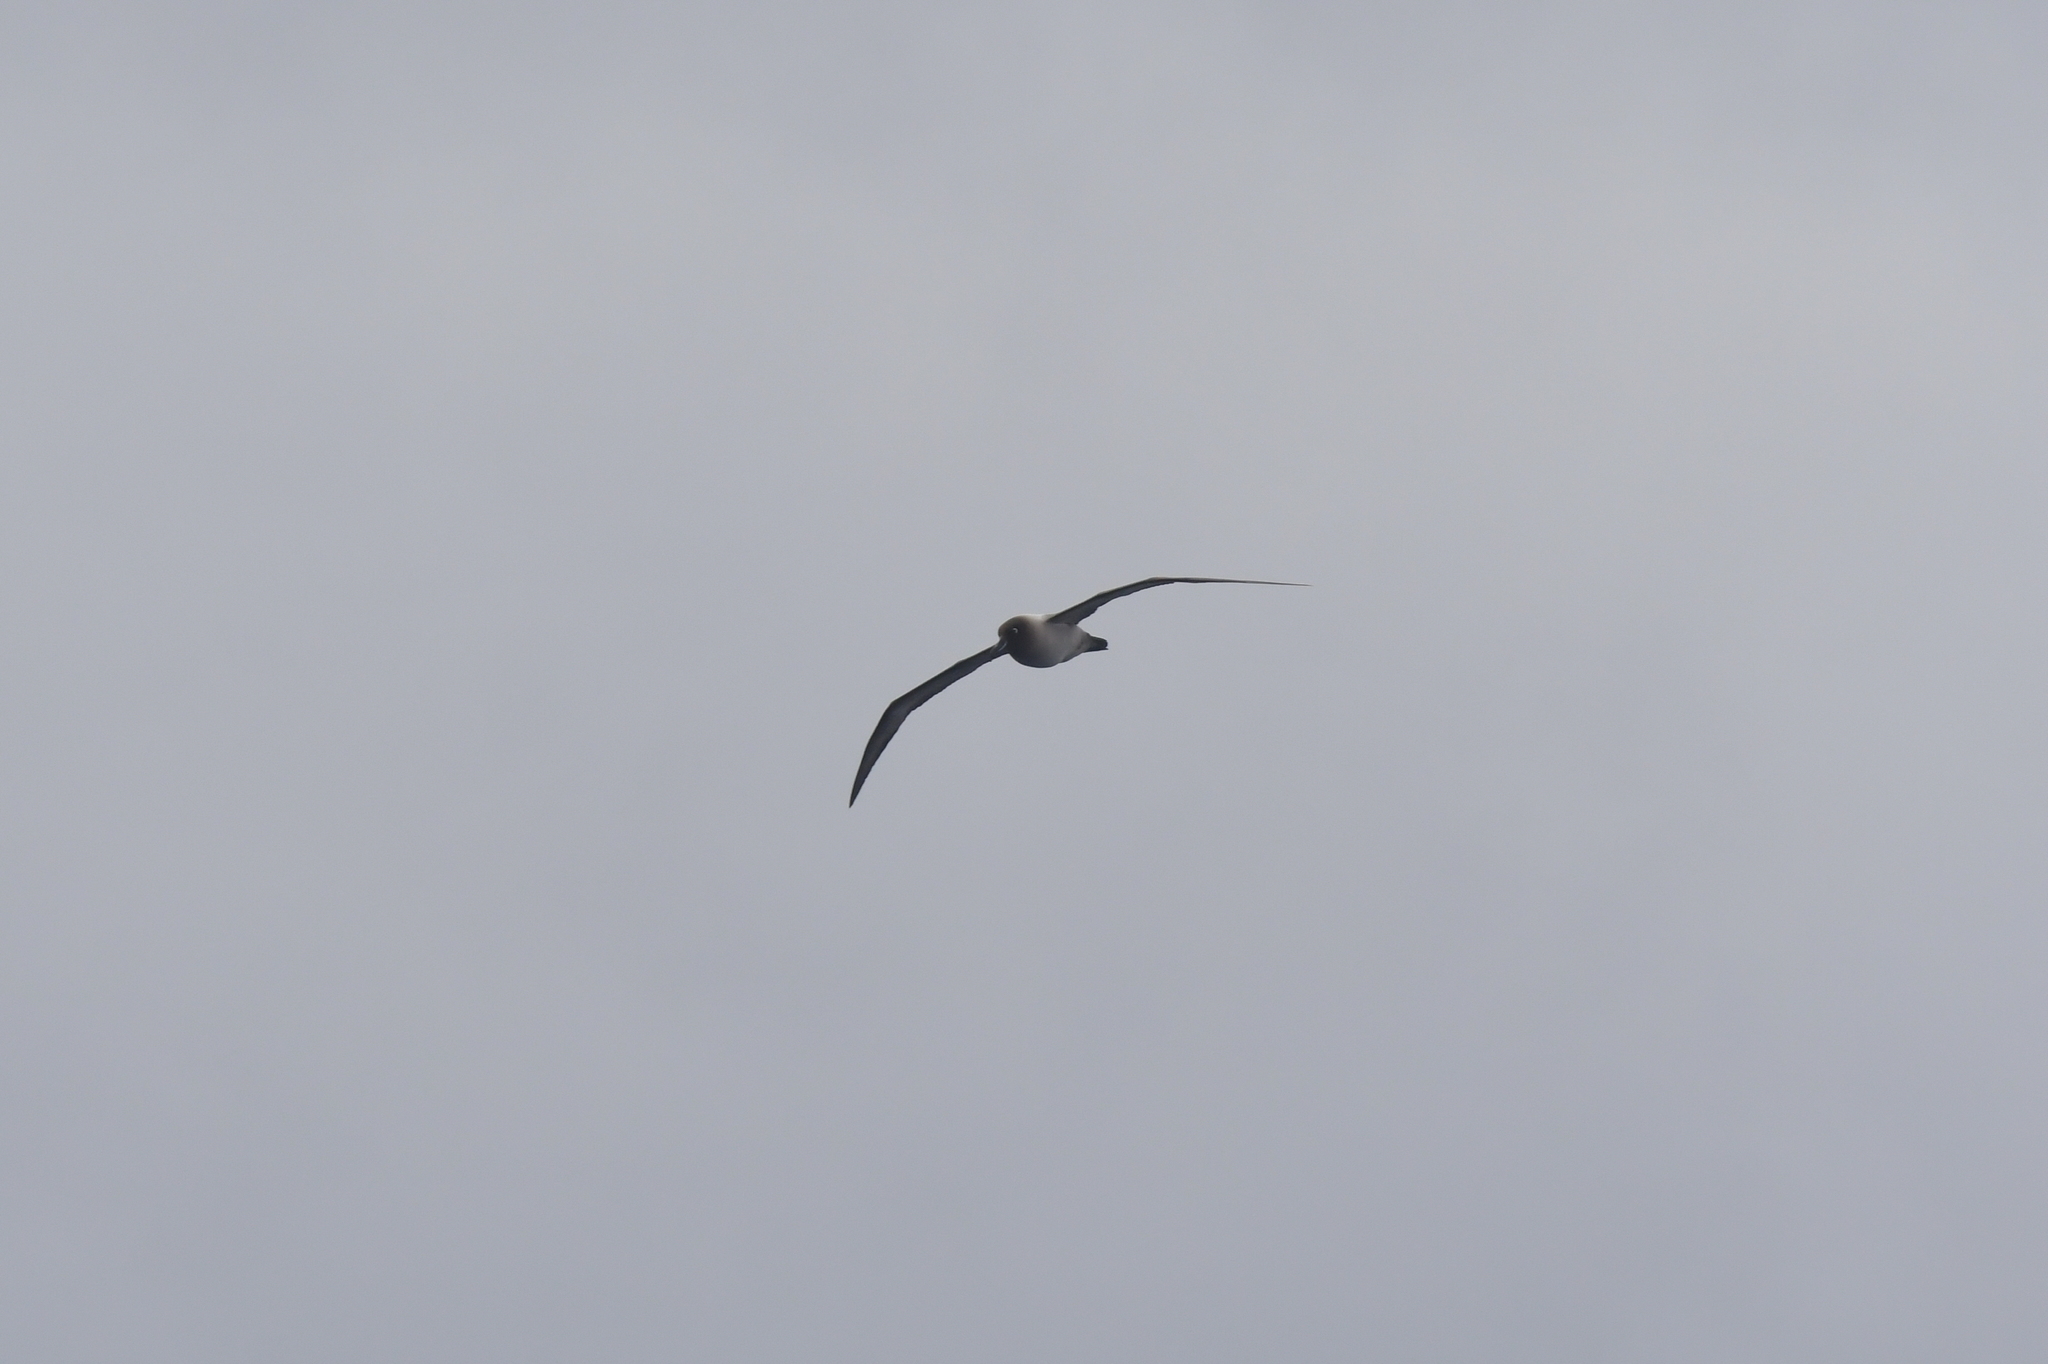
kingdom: Animalia
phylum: Chordata
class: Aves
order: Procellariiformes
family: Diomedeidae
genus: Phoebetria
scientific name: Phoebetria palpebrata
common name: Light-mantled albatross
